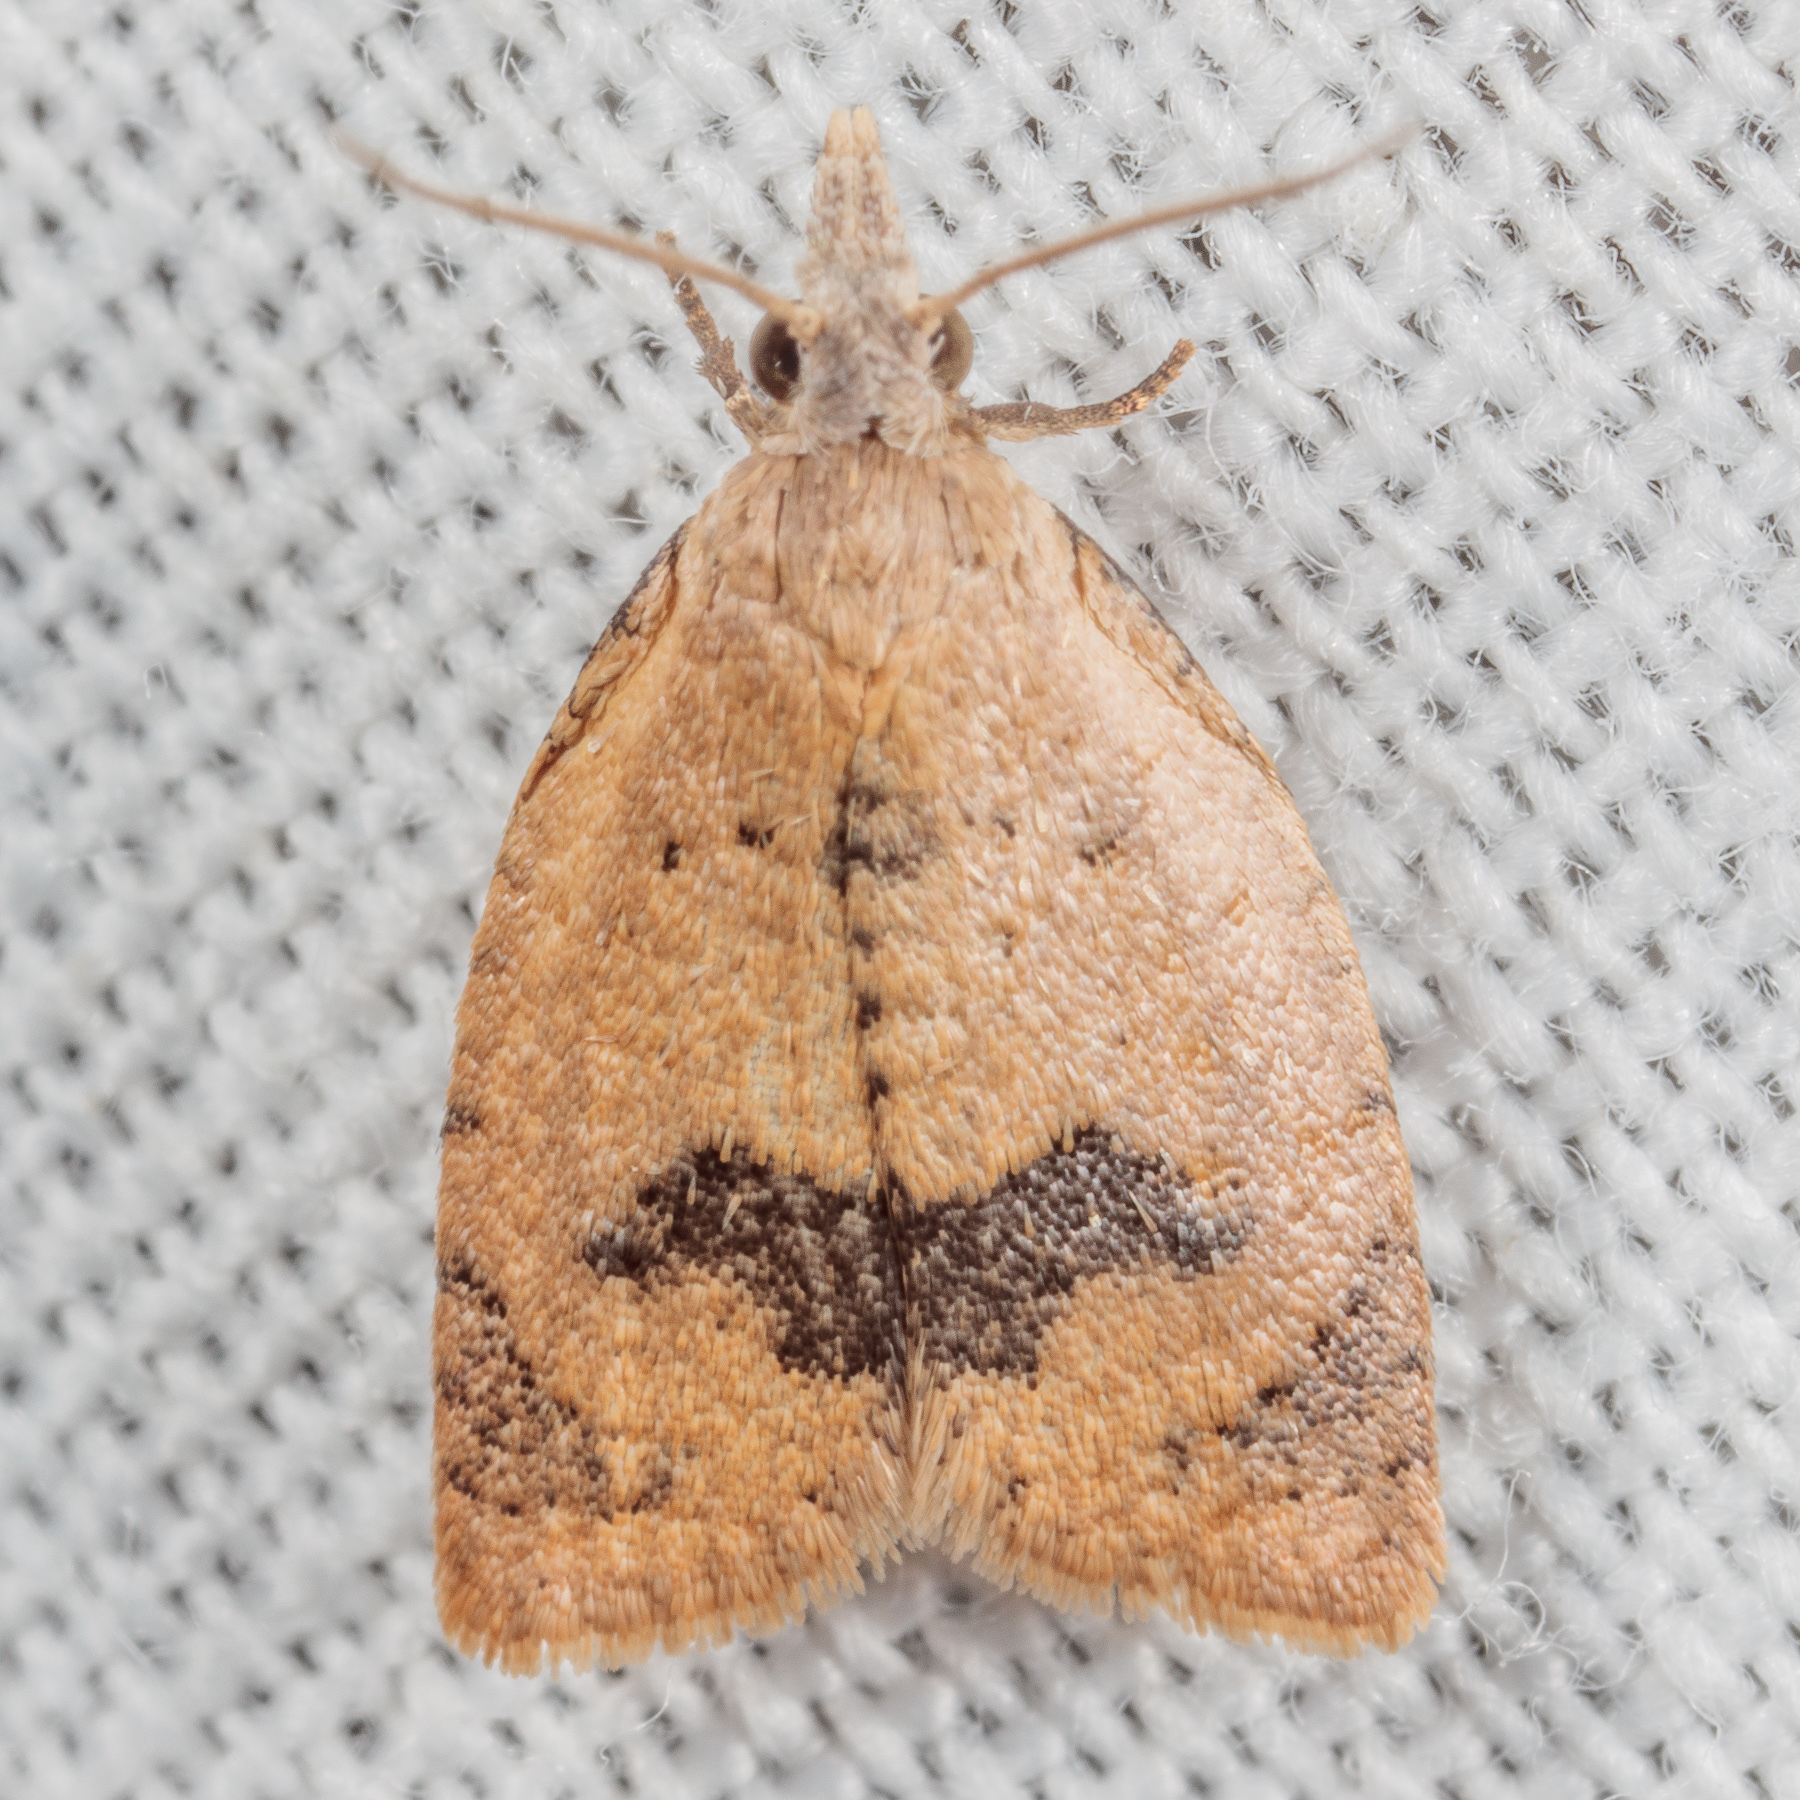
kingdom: Animalia
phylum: Arthropoda
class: Insecta
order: Lepidoptera
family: Tortricidae
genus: Sparganothoides
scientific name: Sparganothoides lentiginosana
